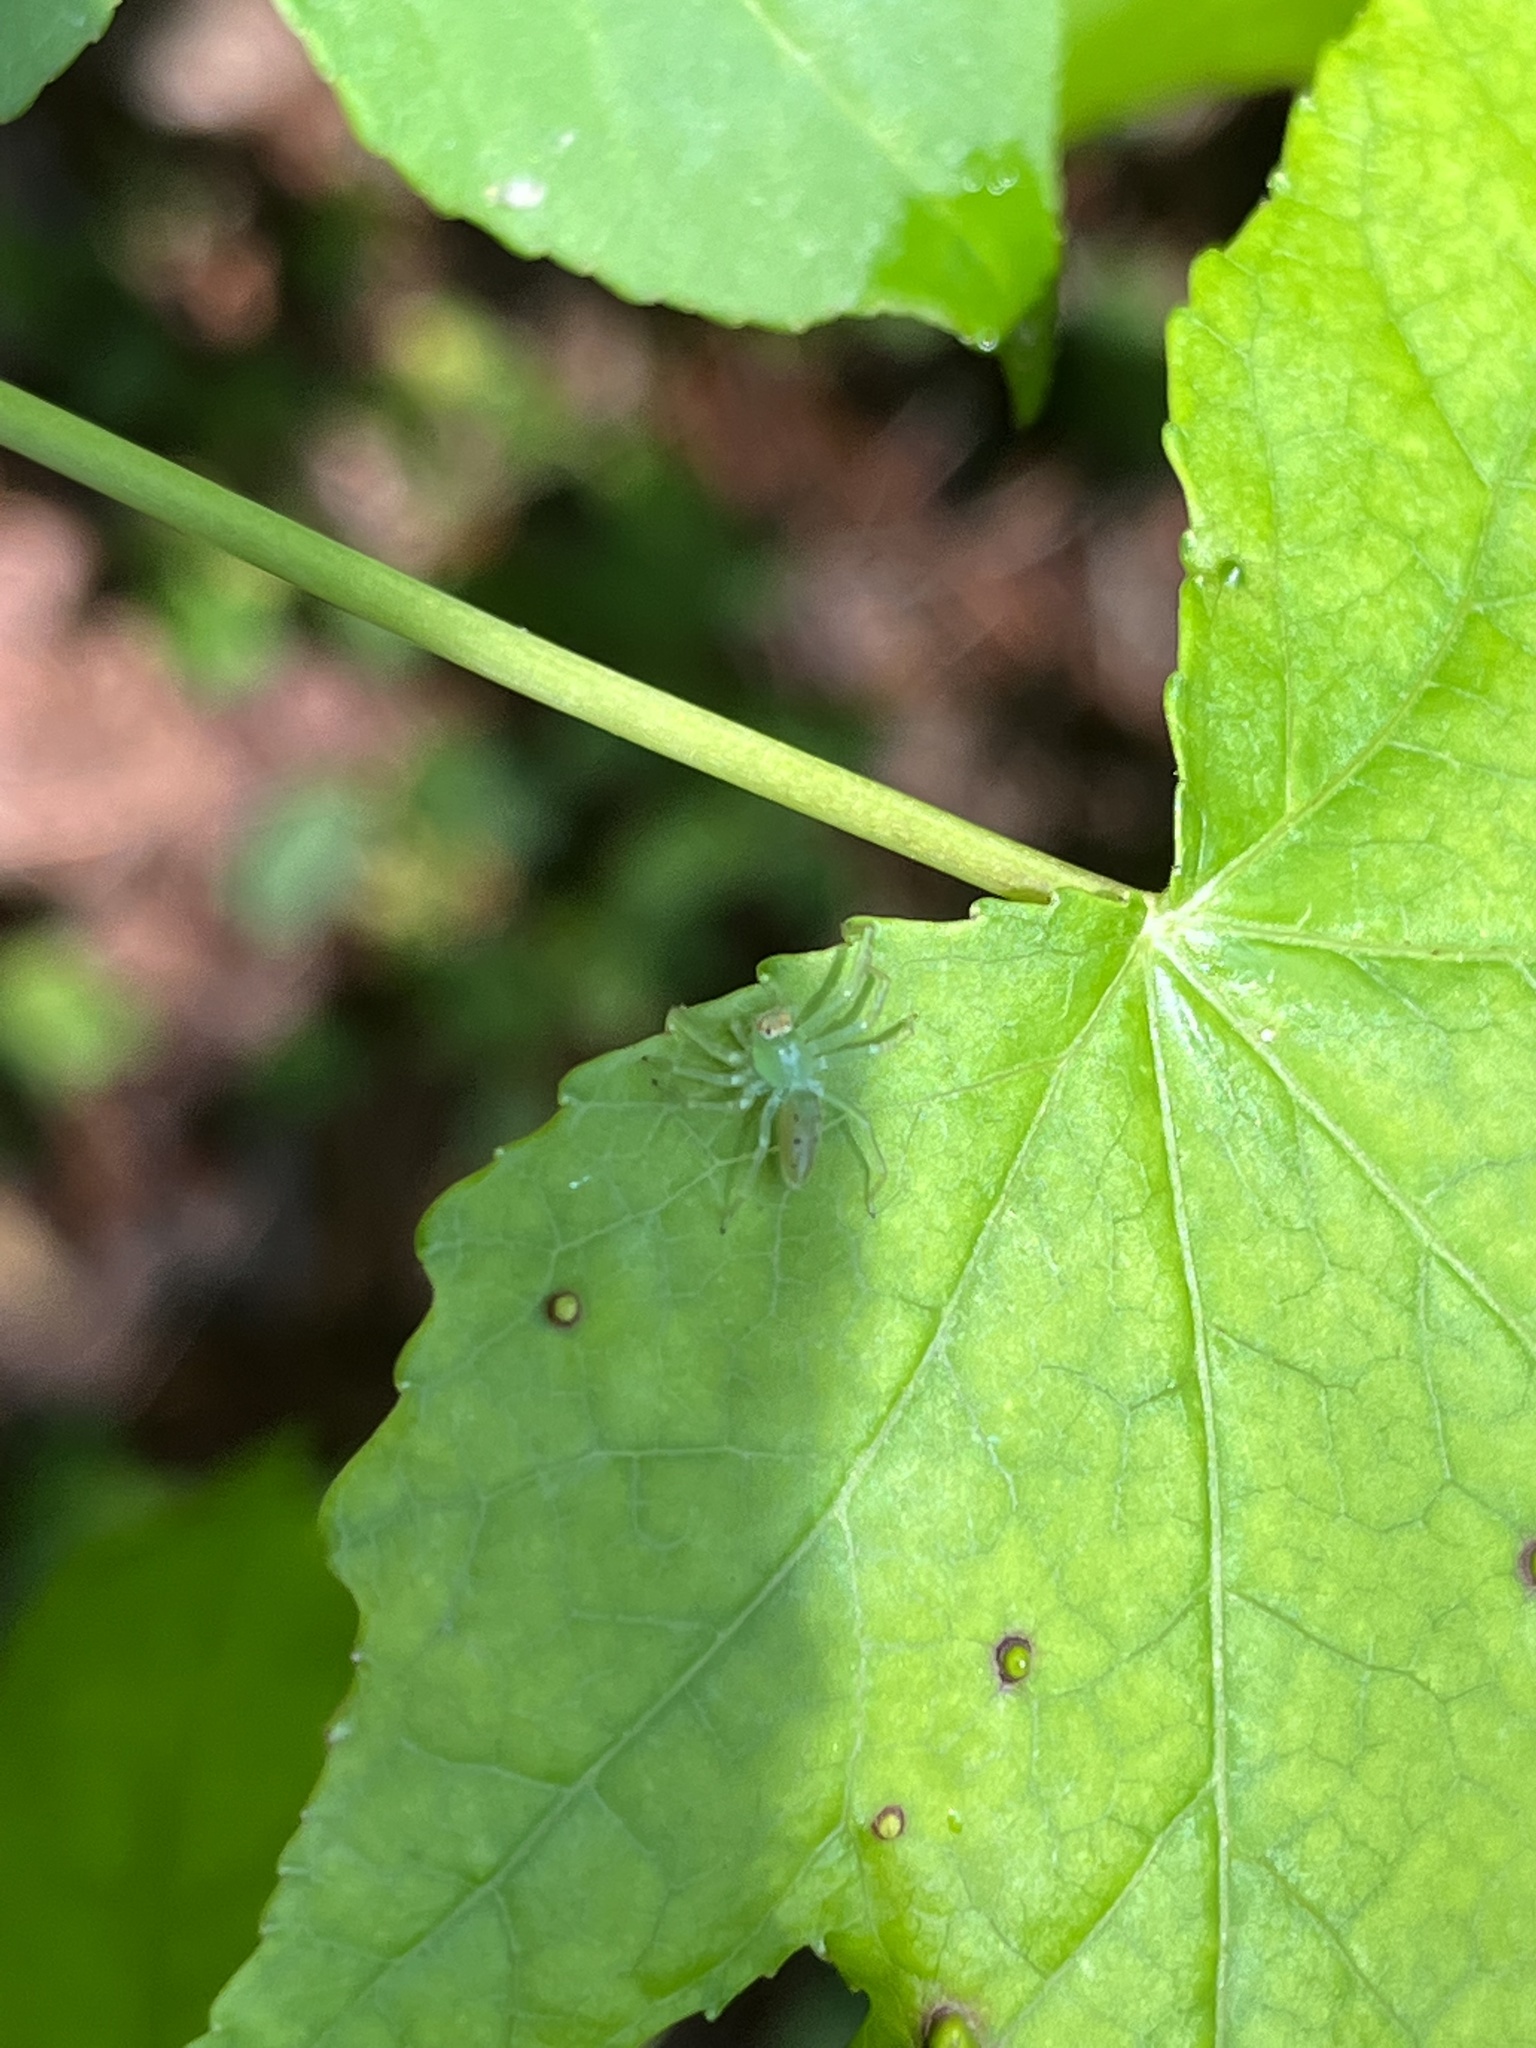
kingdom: Animalia
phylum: Arthropoda
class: Arachnida
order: Araneae
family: Salticidae
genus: Lyssomanes
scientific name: Lyssomanes viridis
